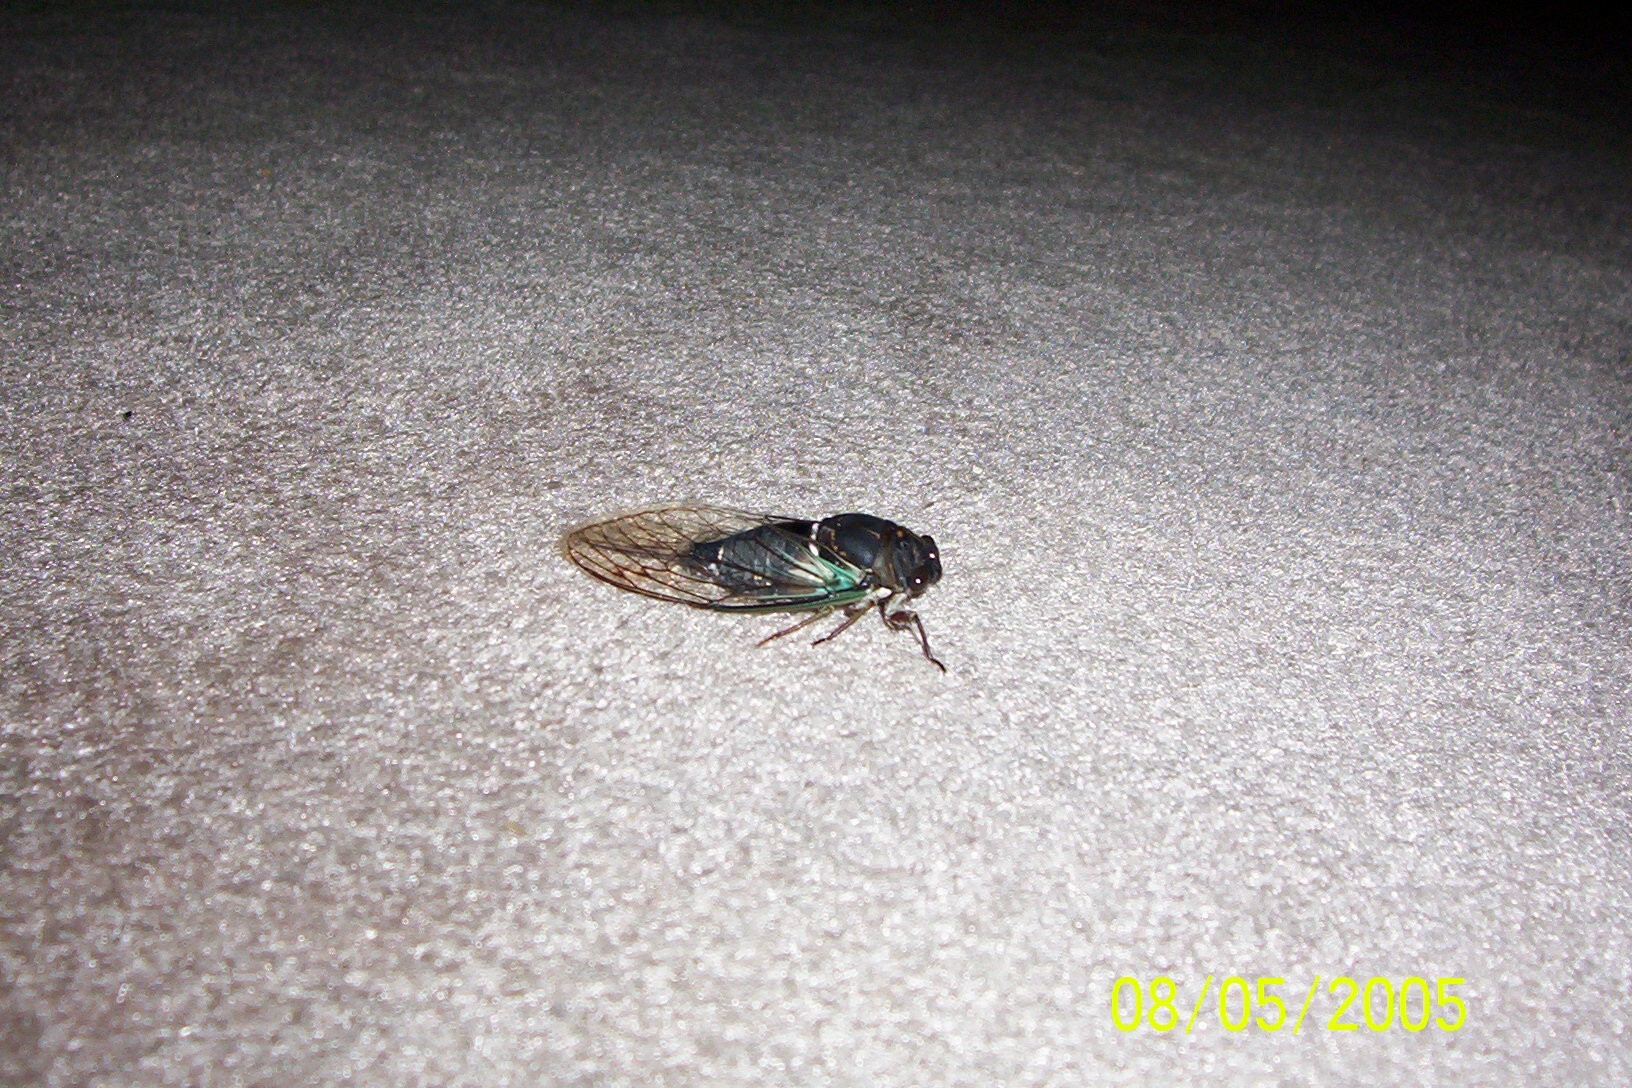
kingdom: Animalia
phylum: Arthropoda
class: Insecta
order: Hemiptera
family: Cicadidae
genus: Neotibicen
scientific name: Neotibicen lyricen
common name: Lyric cicada
